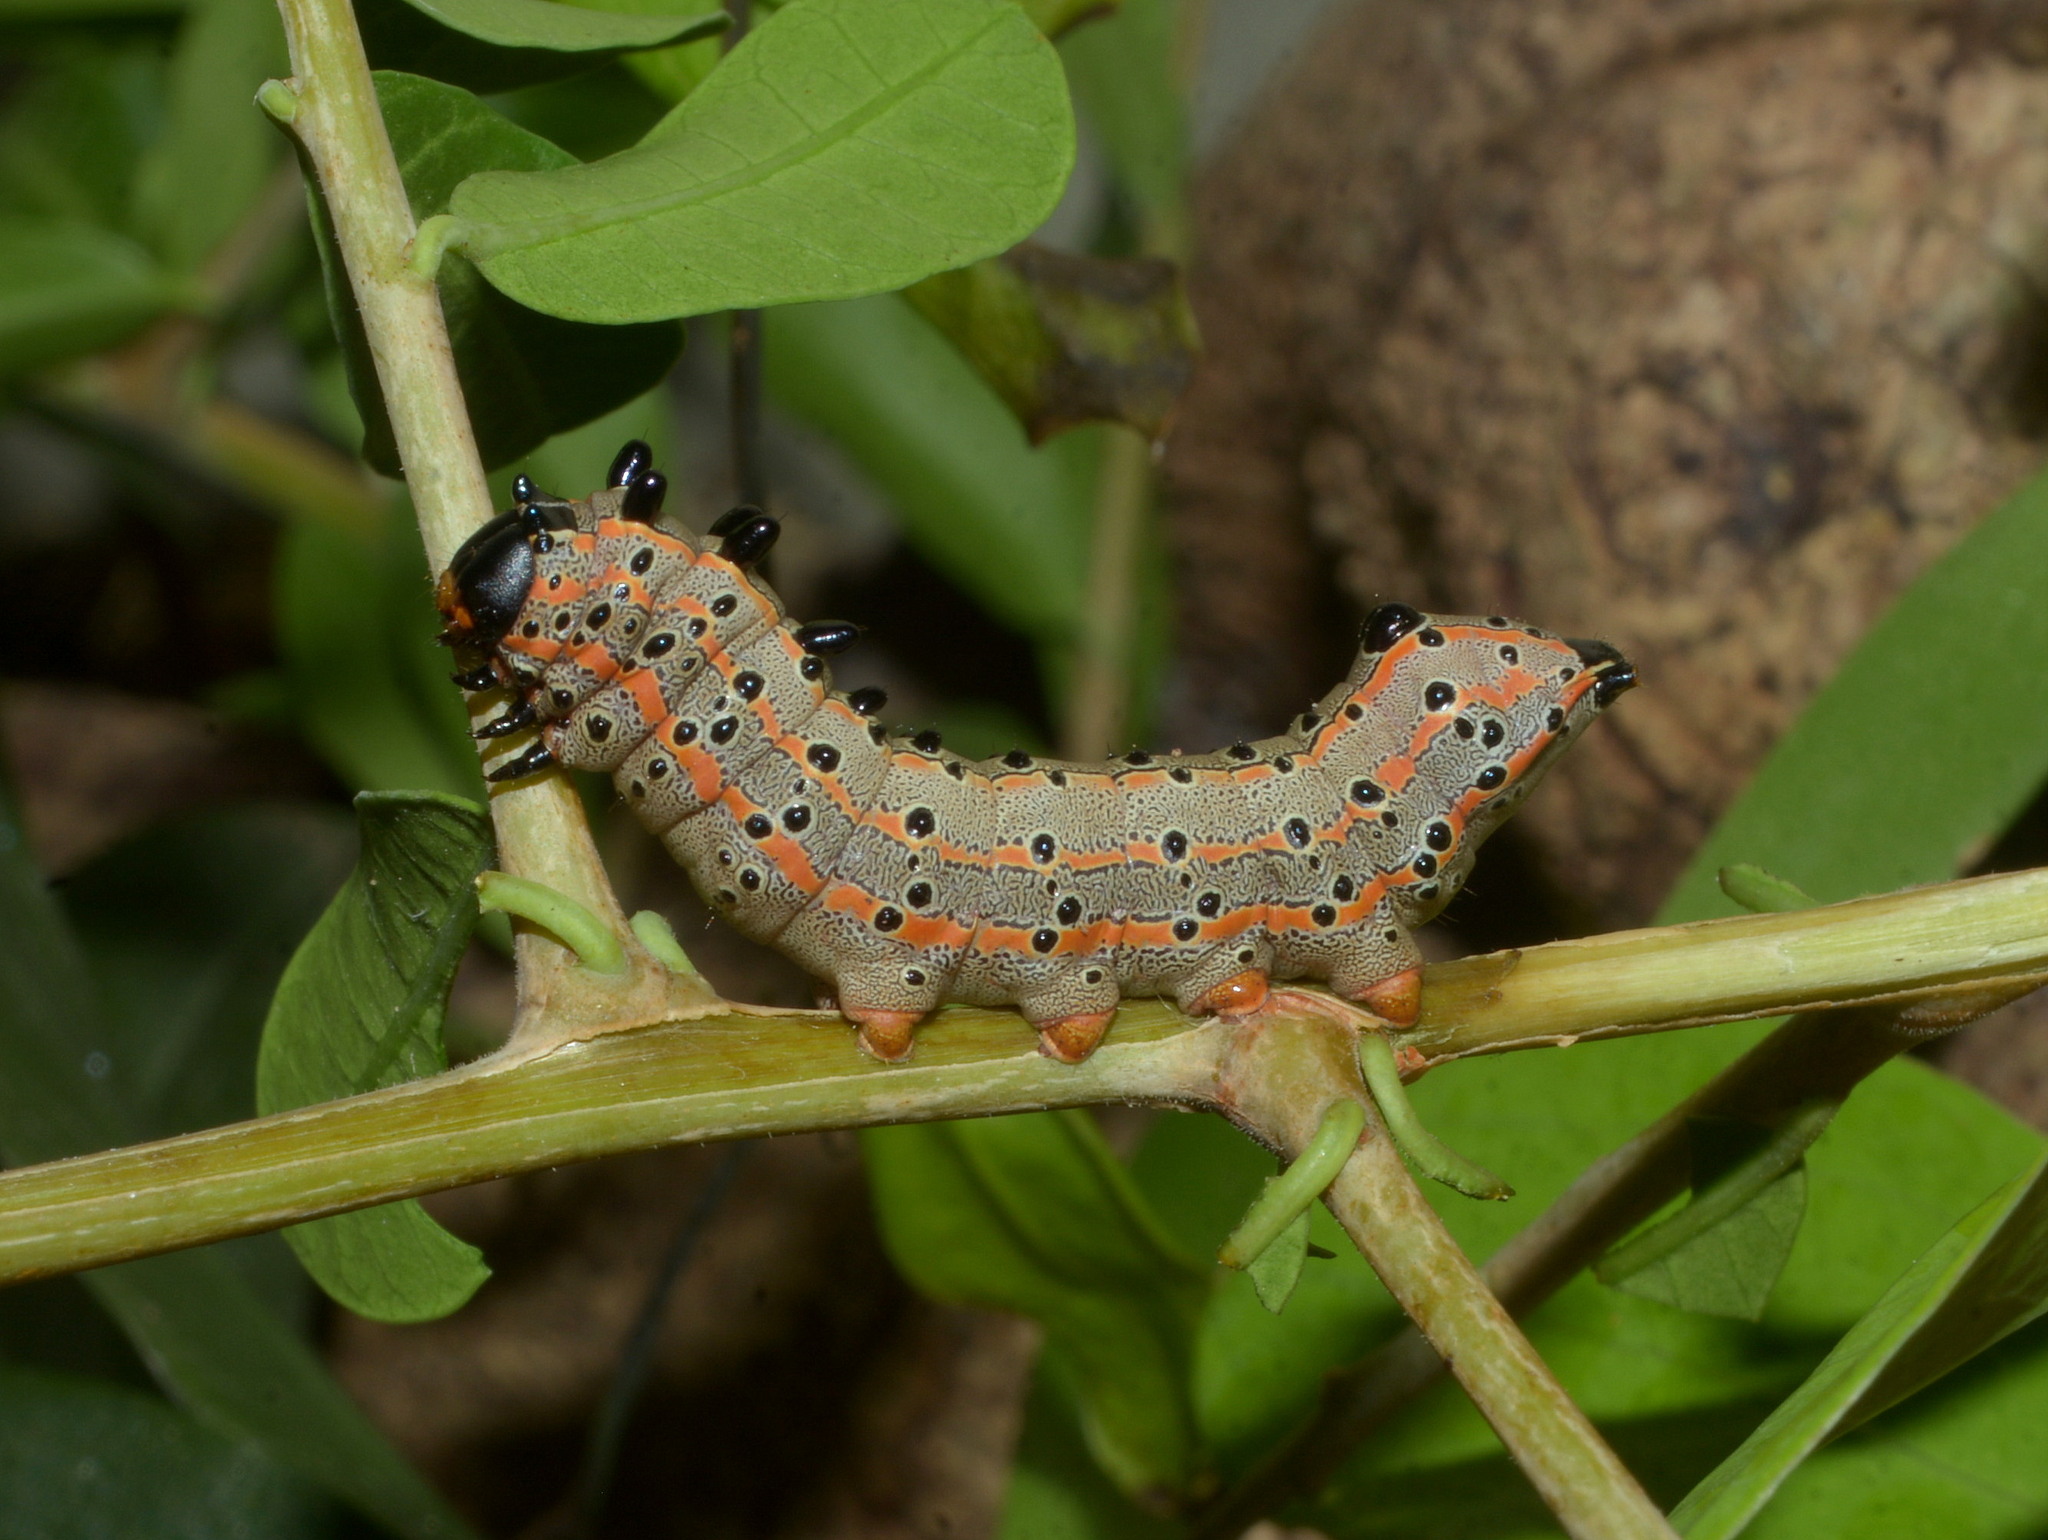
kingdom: Animalia
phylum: Arthropoda
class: Insecta
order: Lepidoptera
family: Notodontidae
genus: Tecmessa
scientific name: Tecmessa annulipes
